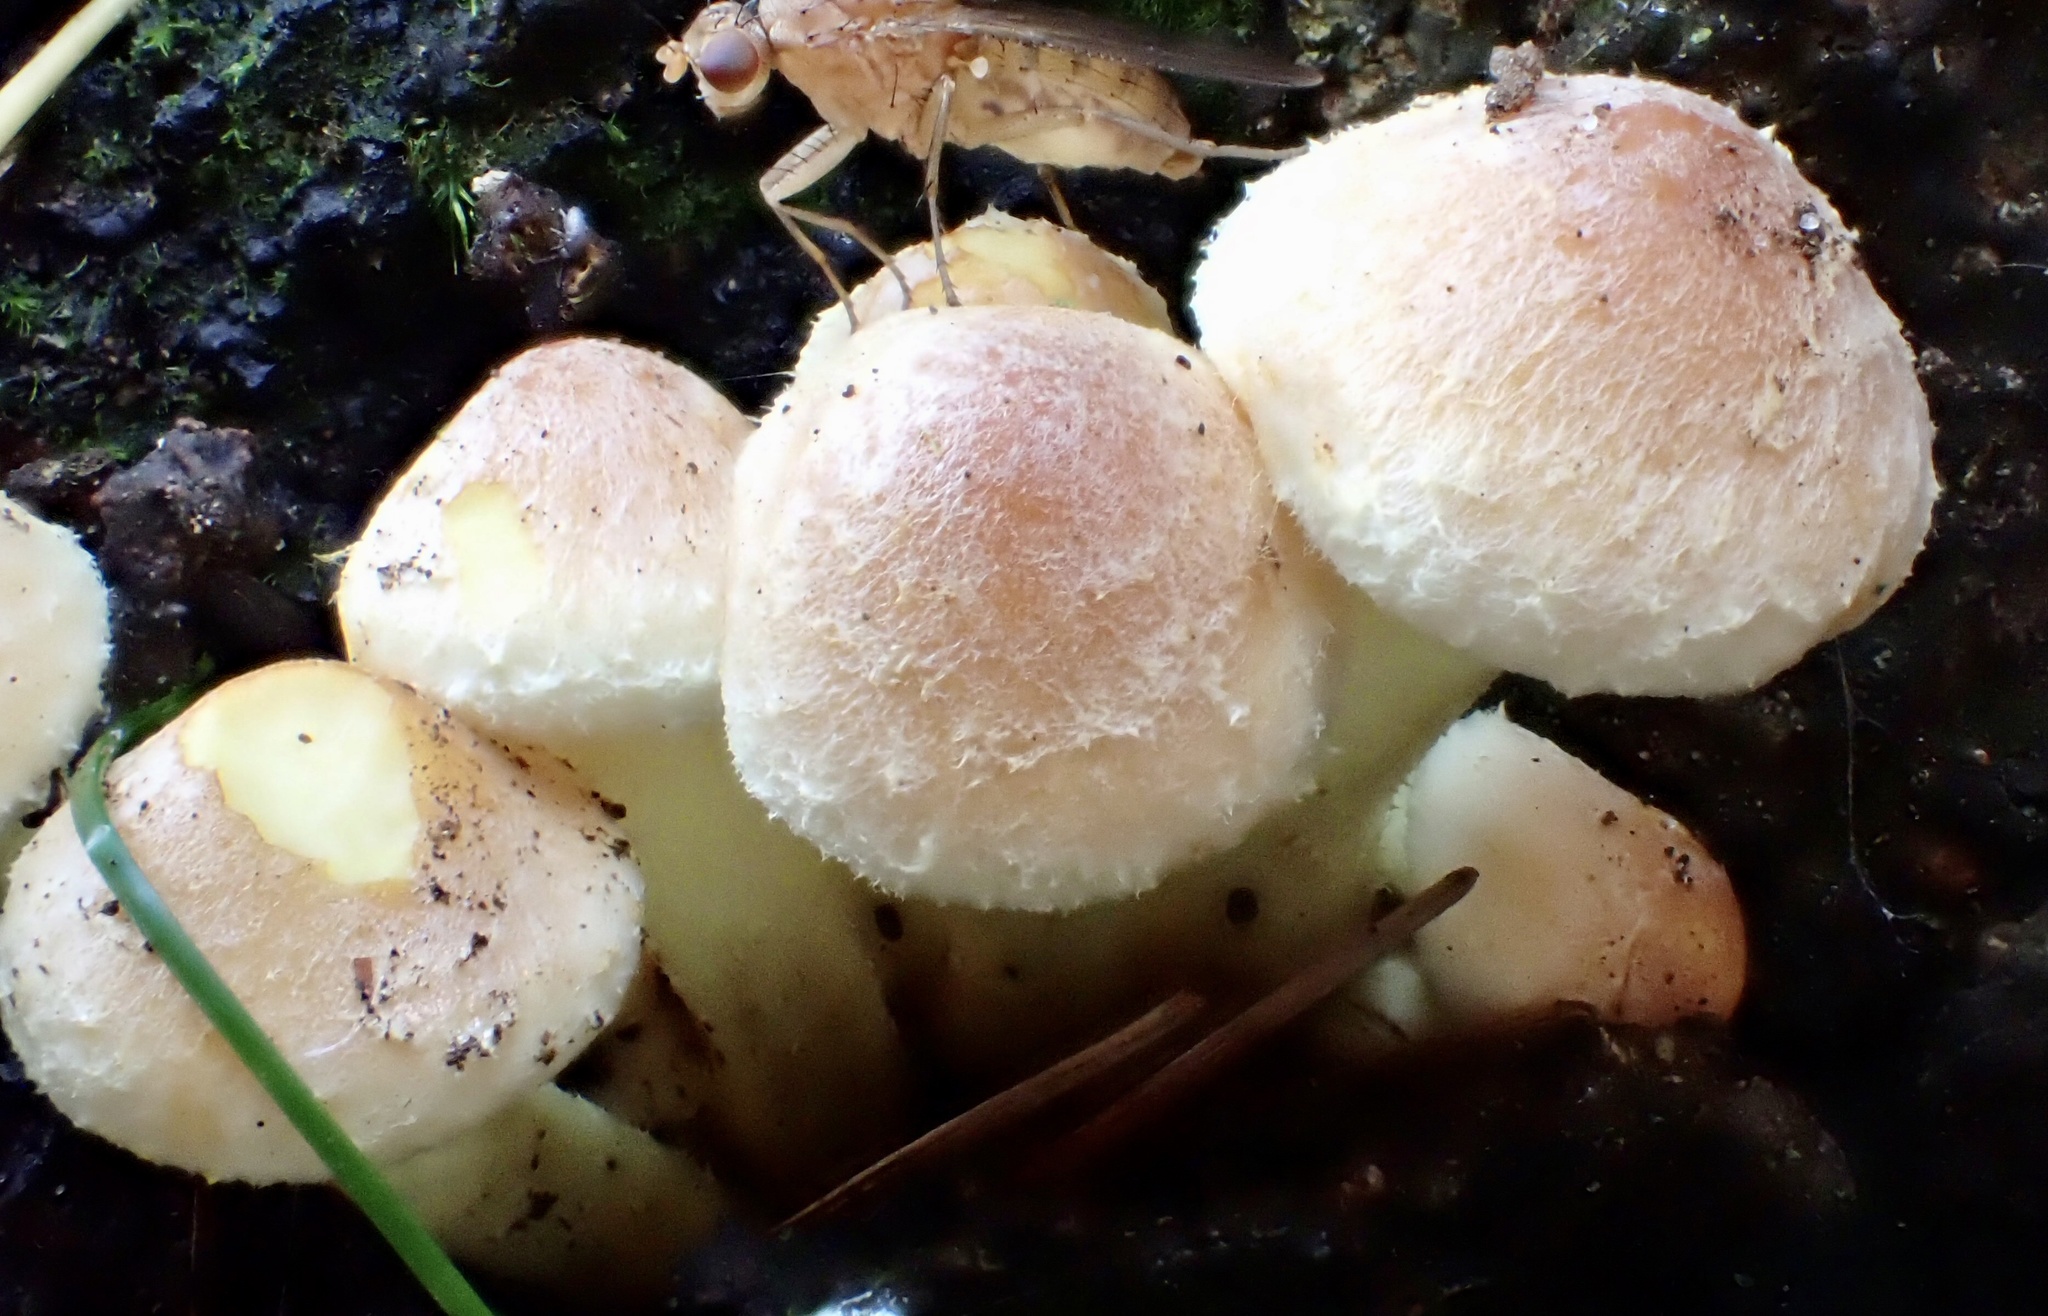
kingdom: Fungi
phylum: Basidiomycota
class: Agaricomycetes
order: Agaricales
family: Strophariaceae
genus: Hypholoma
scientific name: Hypholoma lateritium
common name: Brick caps
